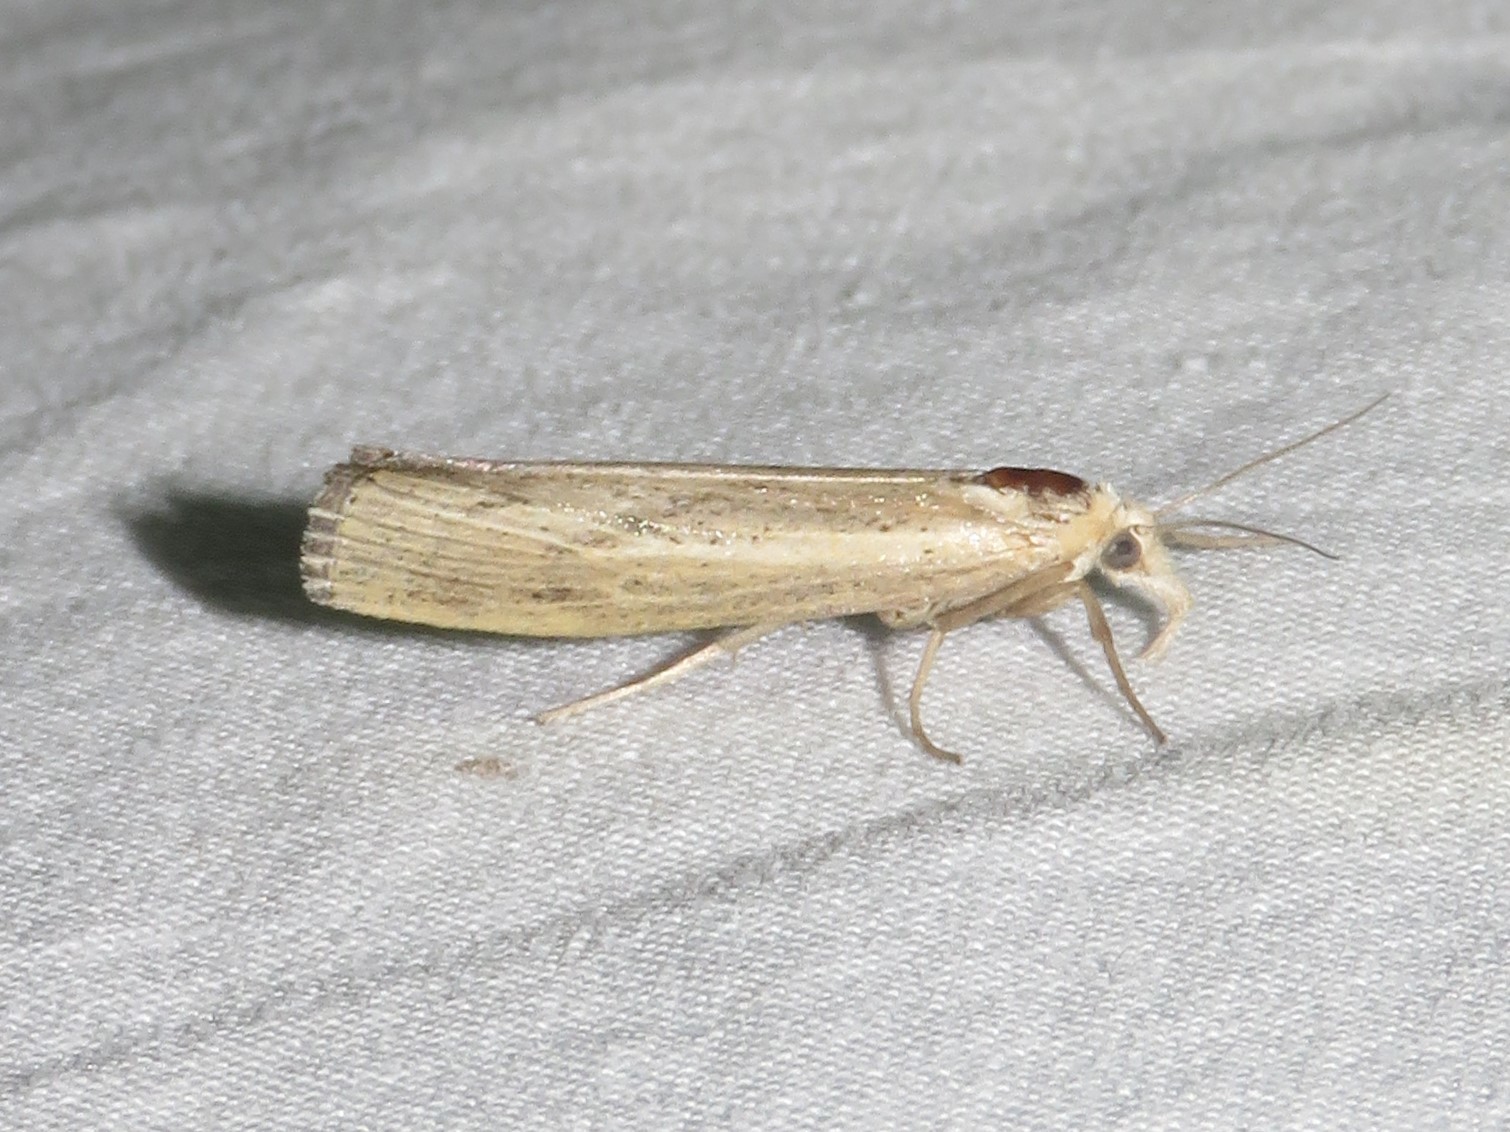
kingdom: Animalia
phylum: Arthropoda
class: Insecta
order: Lepidoptera
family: Crambidae
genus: Pediasia
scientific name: Pediasia trisecta
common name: Sod webworm moth
